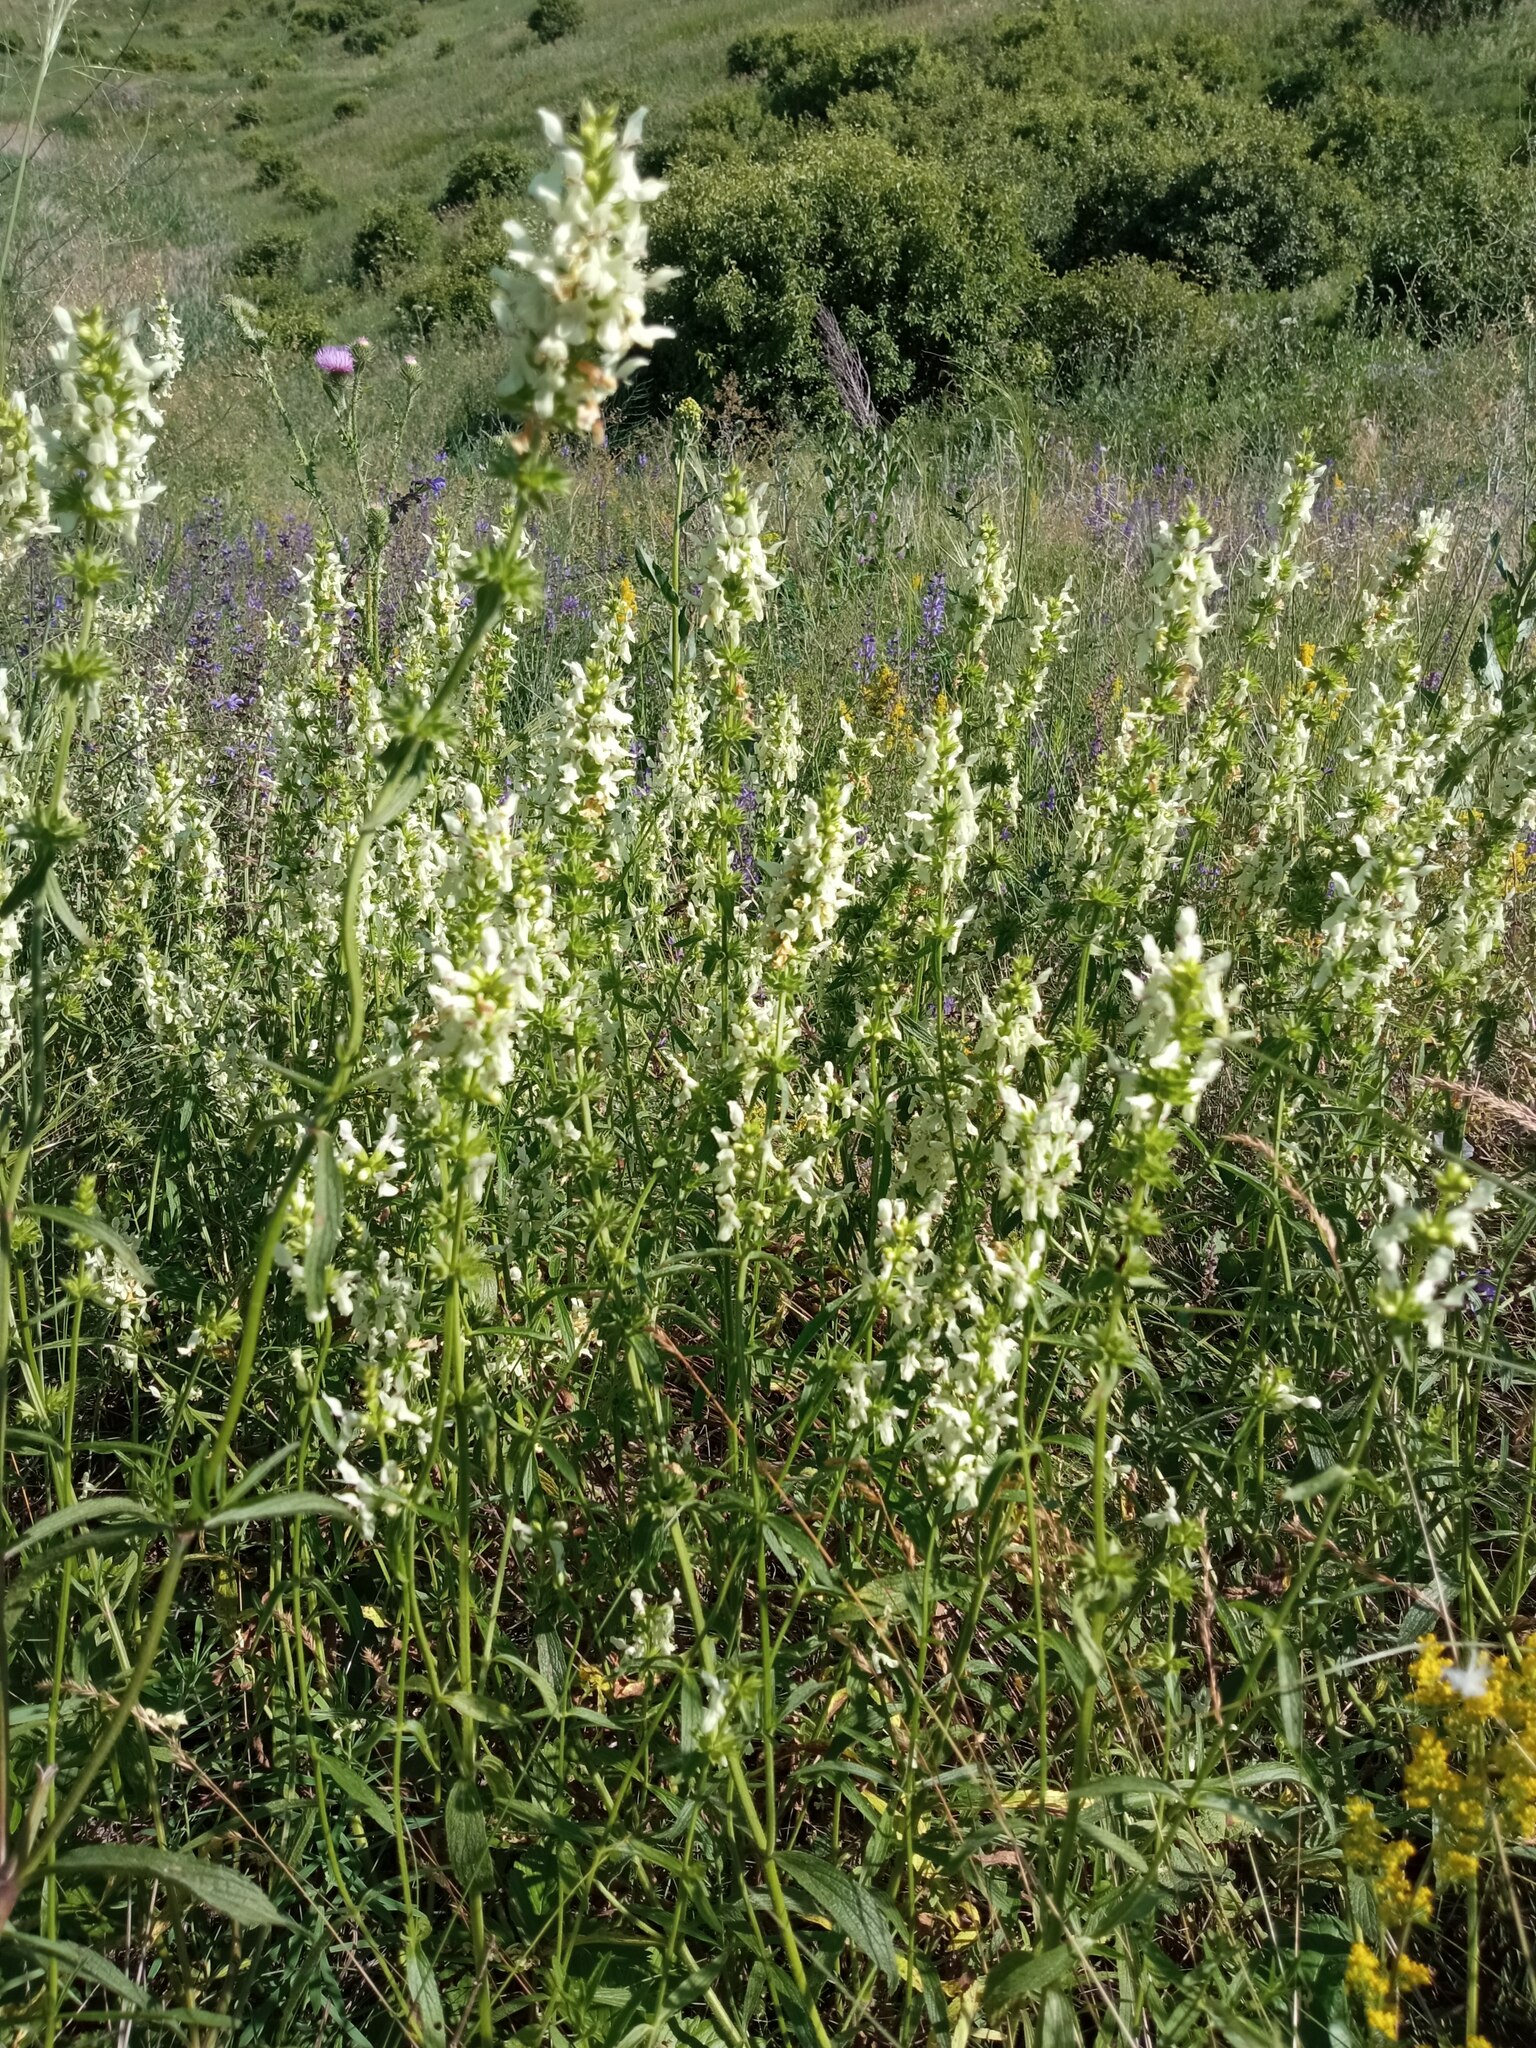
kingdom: Plantae
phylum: Tracheophyta
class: Magnoliopsida
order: Lamiales
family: Lamiaceae
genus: Stachys
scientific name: Stachys recta
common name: Perennial yellow-woundwort
